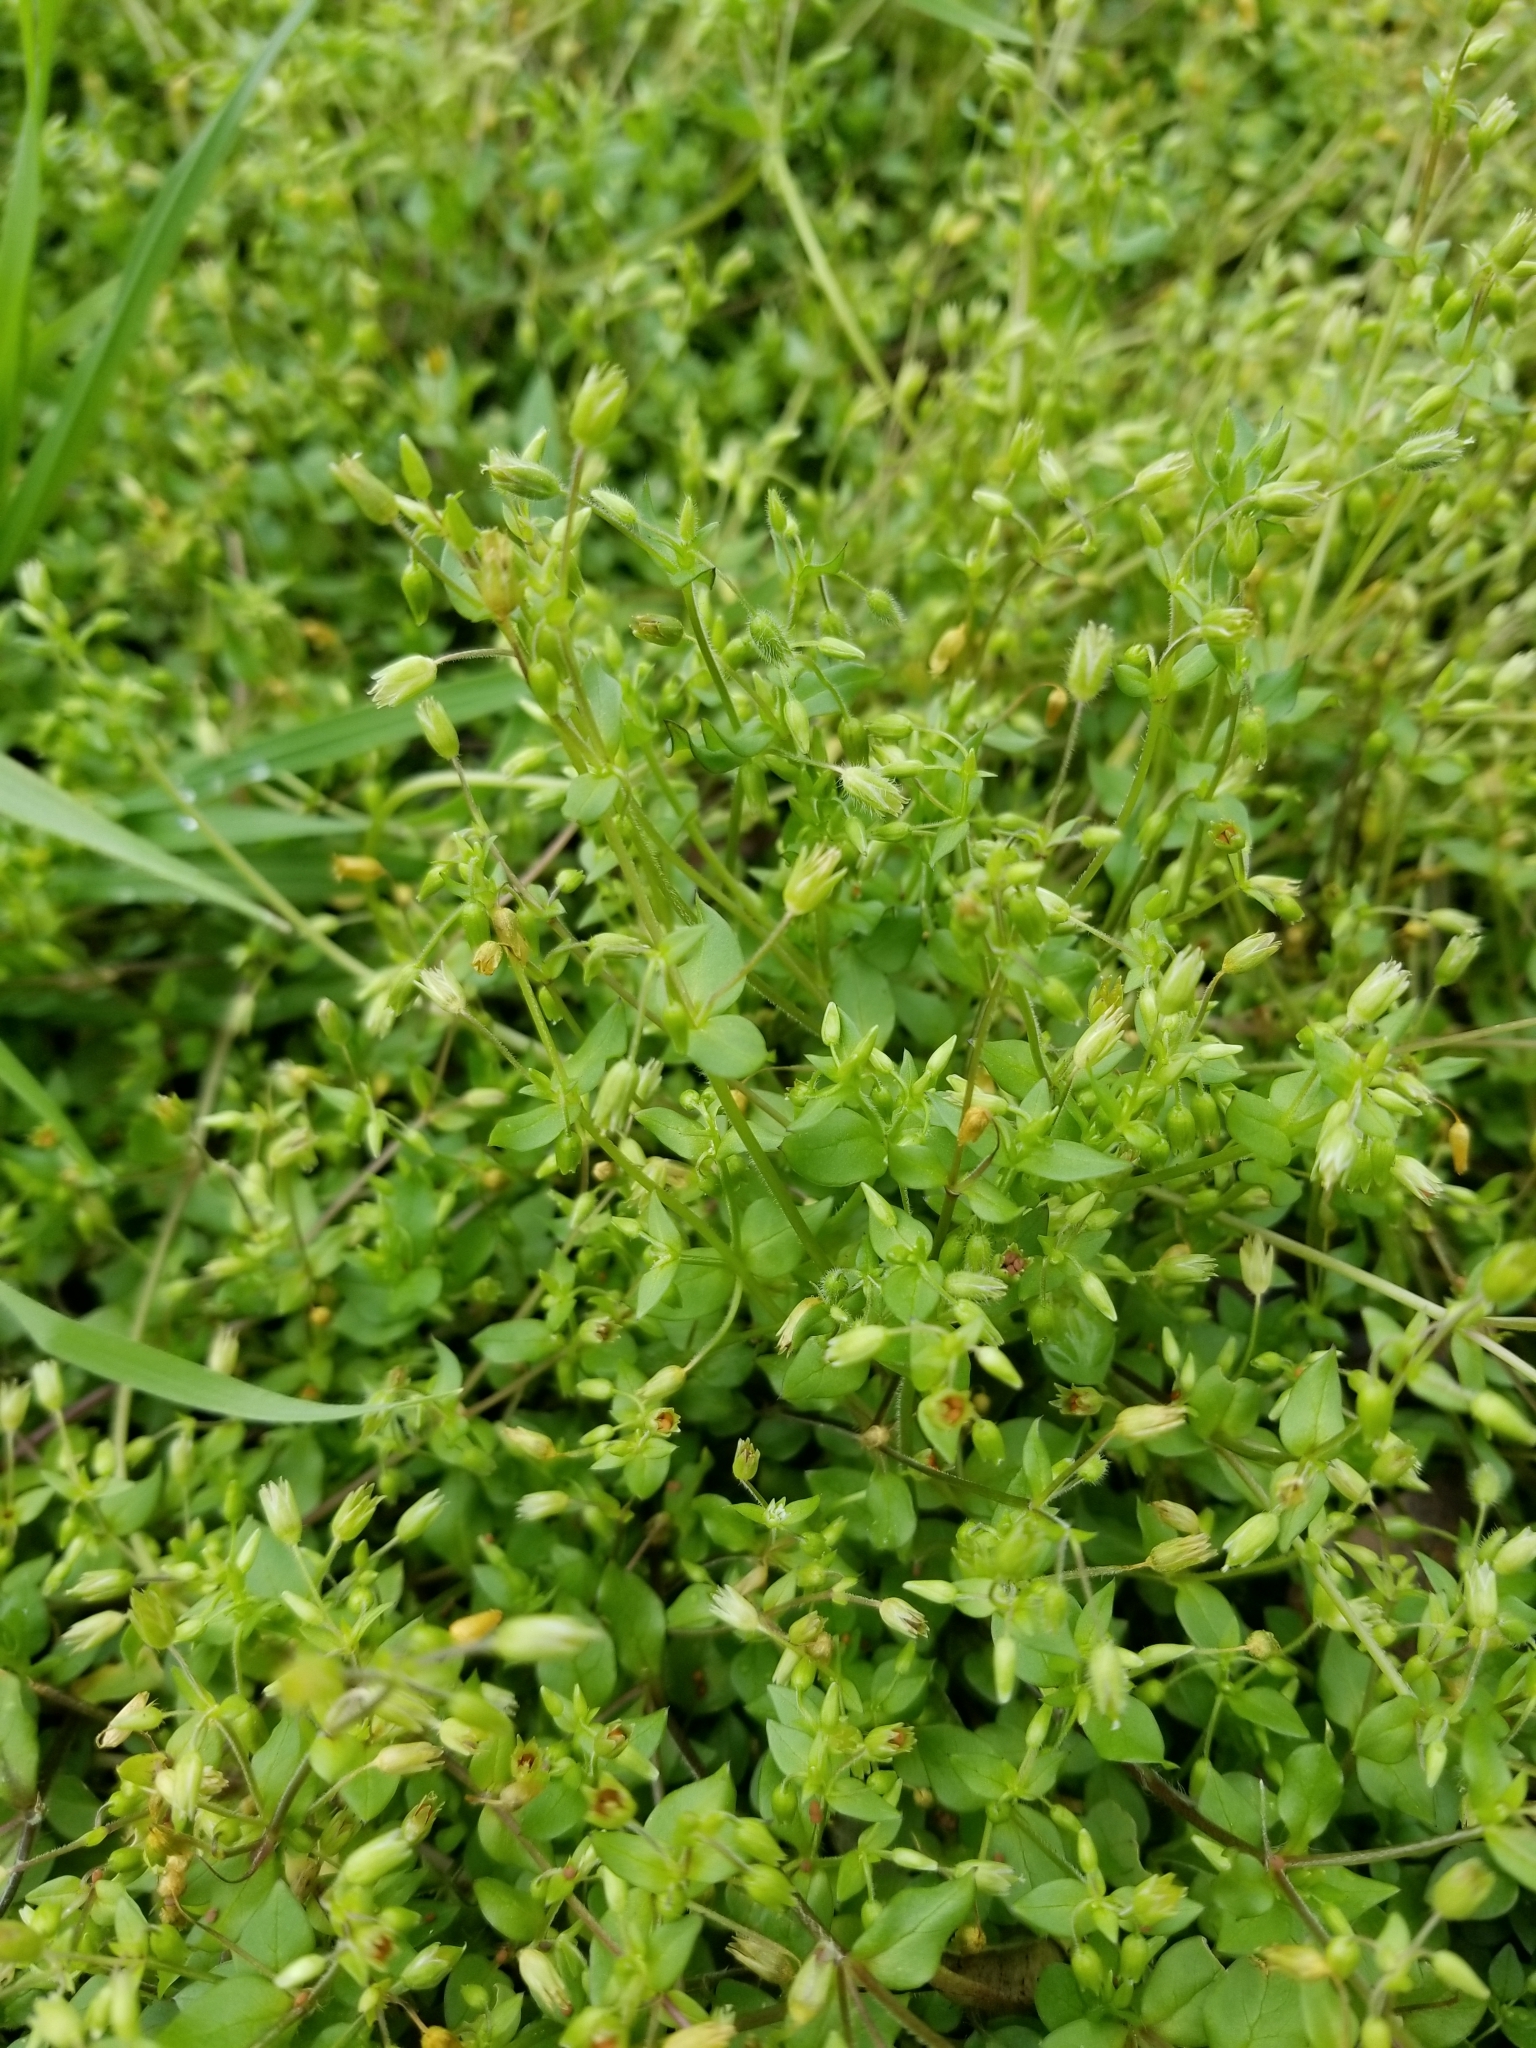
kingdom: Plantae
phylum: Tracheophyta
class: Magnoliopsida
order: Caryophyllales
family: Caryophyllaceae
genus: Stellaria
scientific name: Stellaria media
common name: Common chickweed
